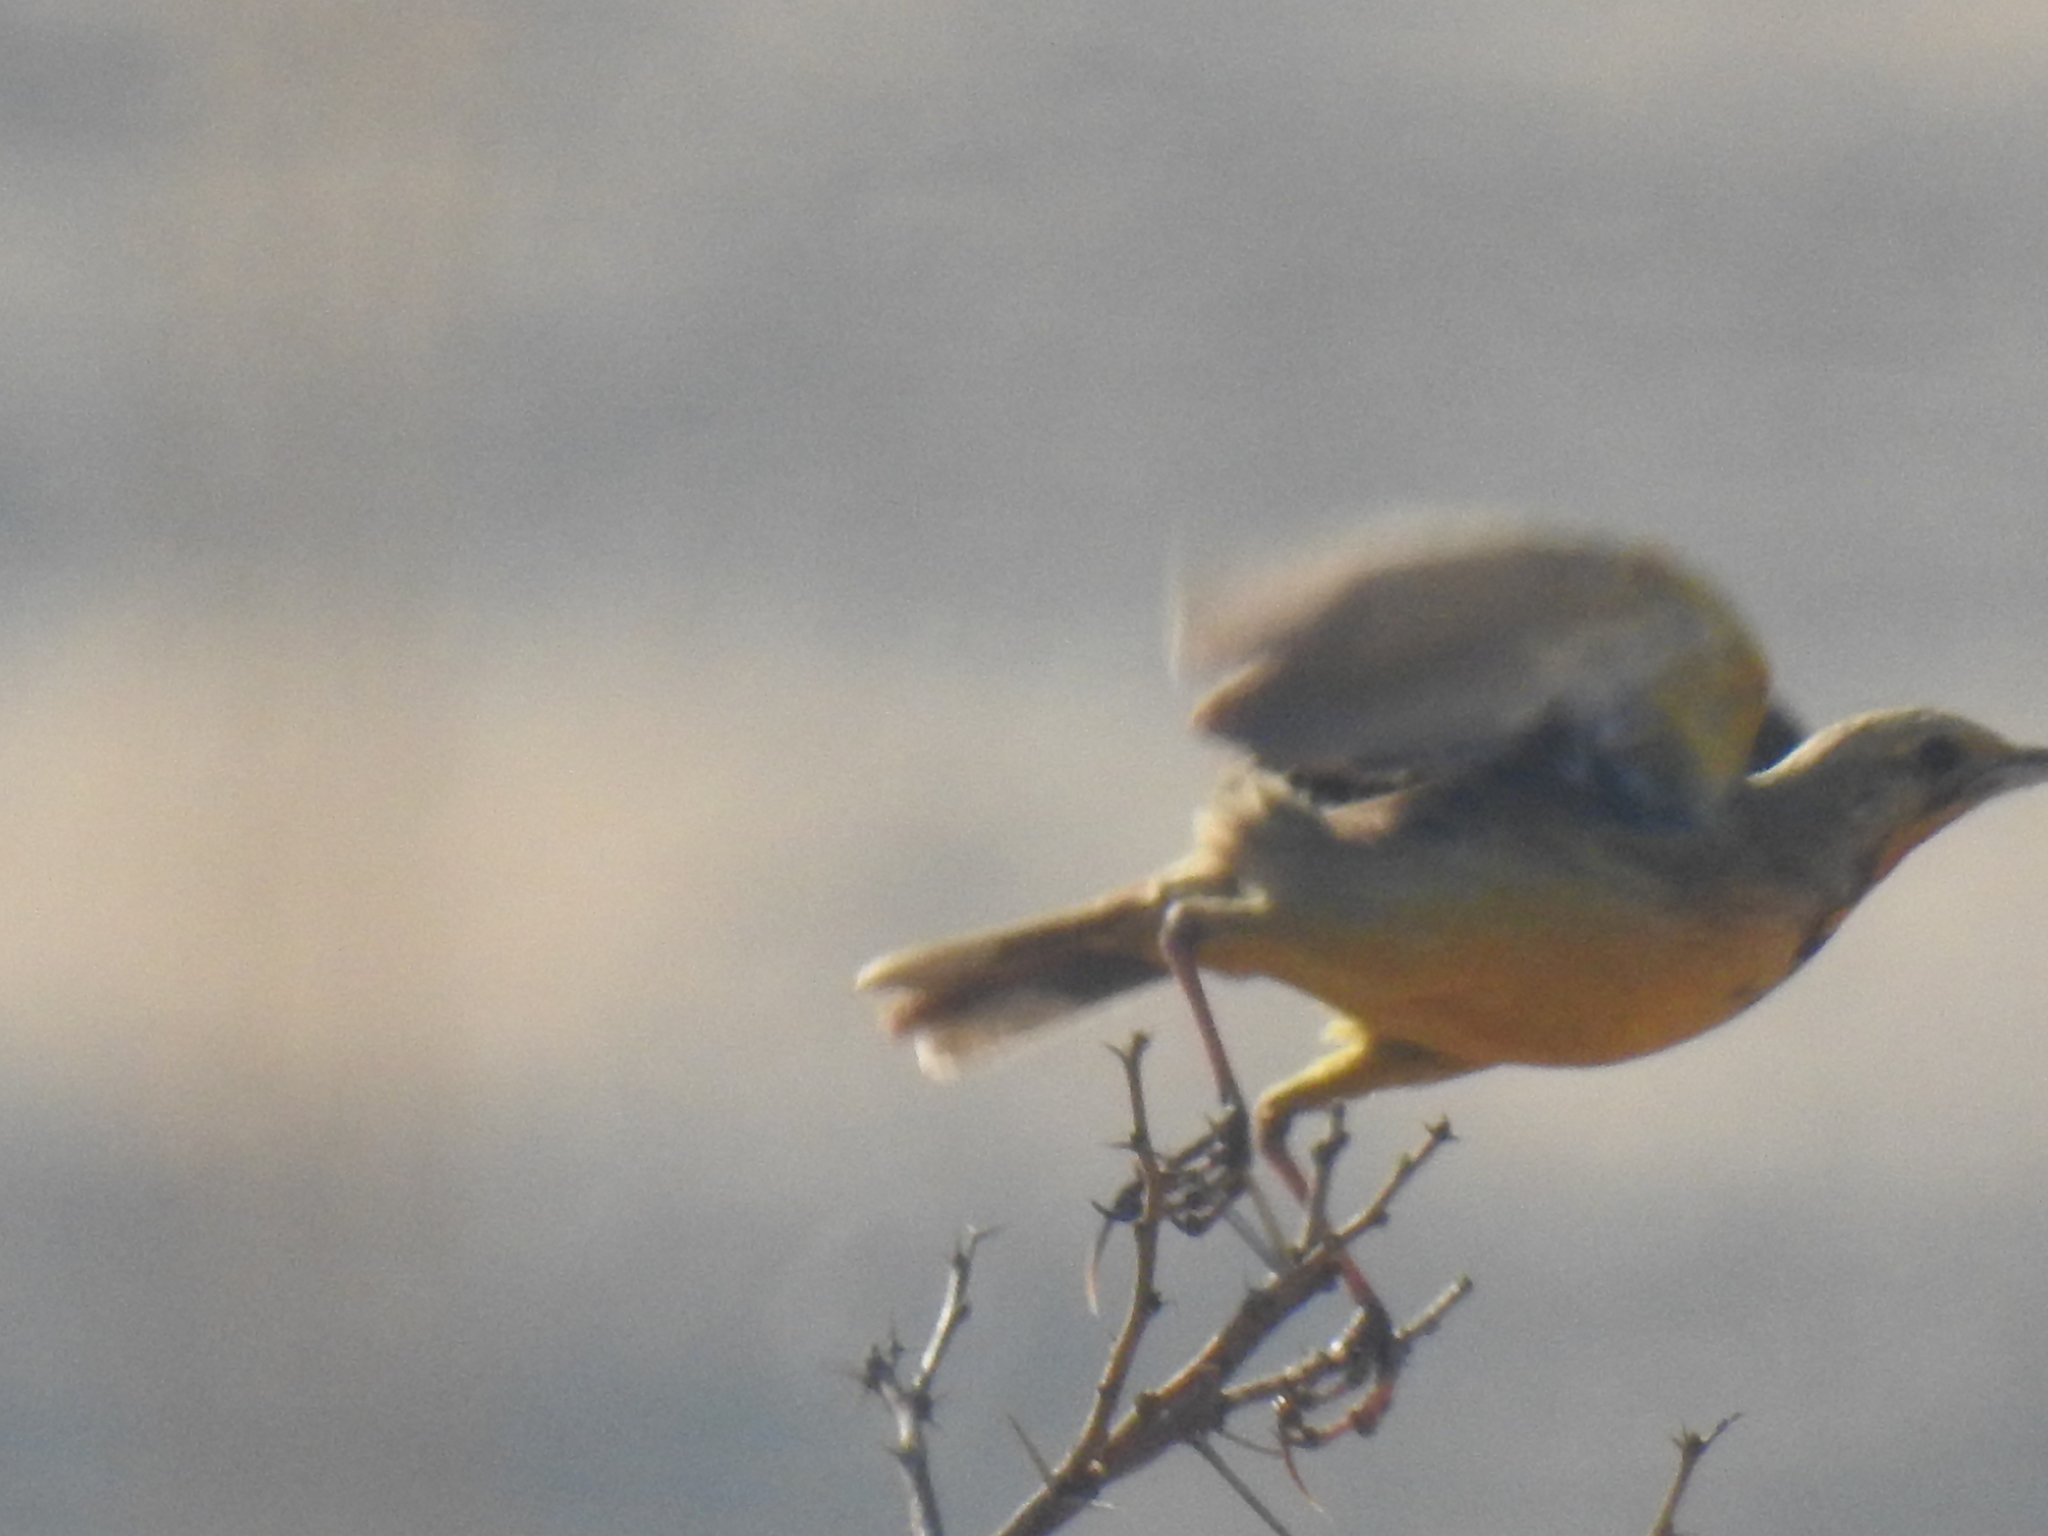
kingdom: Animalia
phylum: Chordata
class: Aves
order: Passeriformes
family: Motacillidae
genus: Macronyx
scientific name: Macronyx capensis
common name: Cape longclaw
